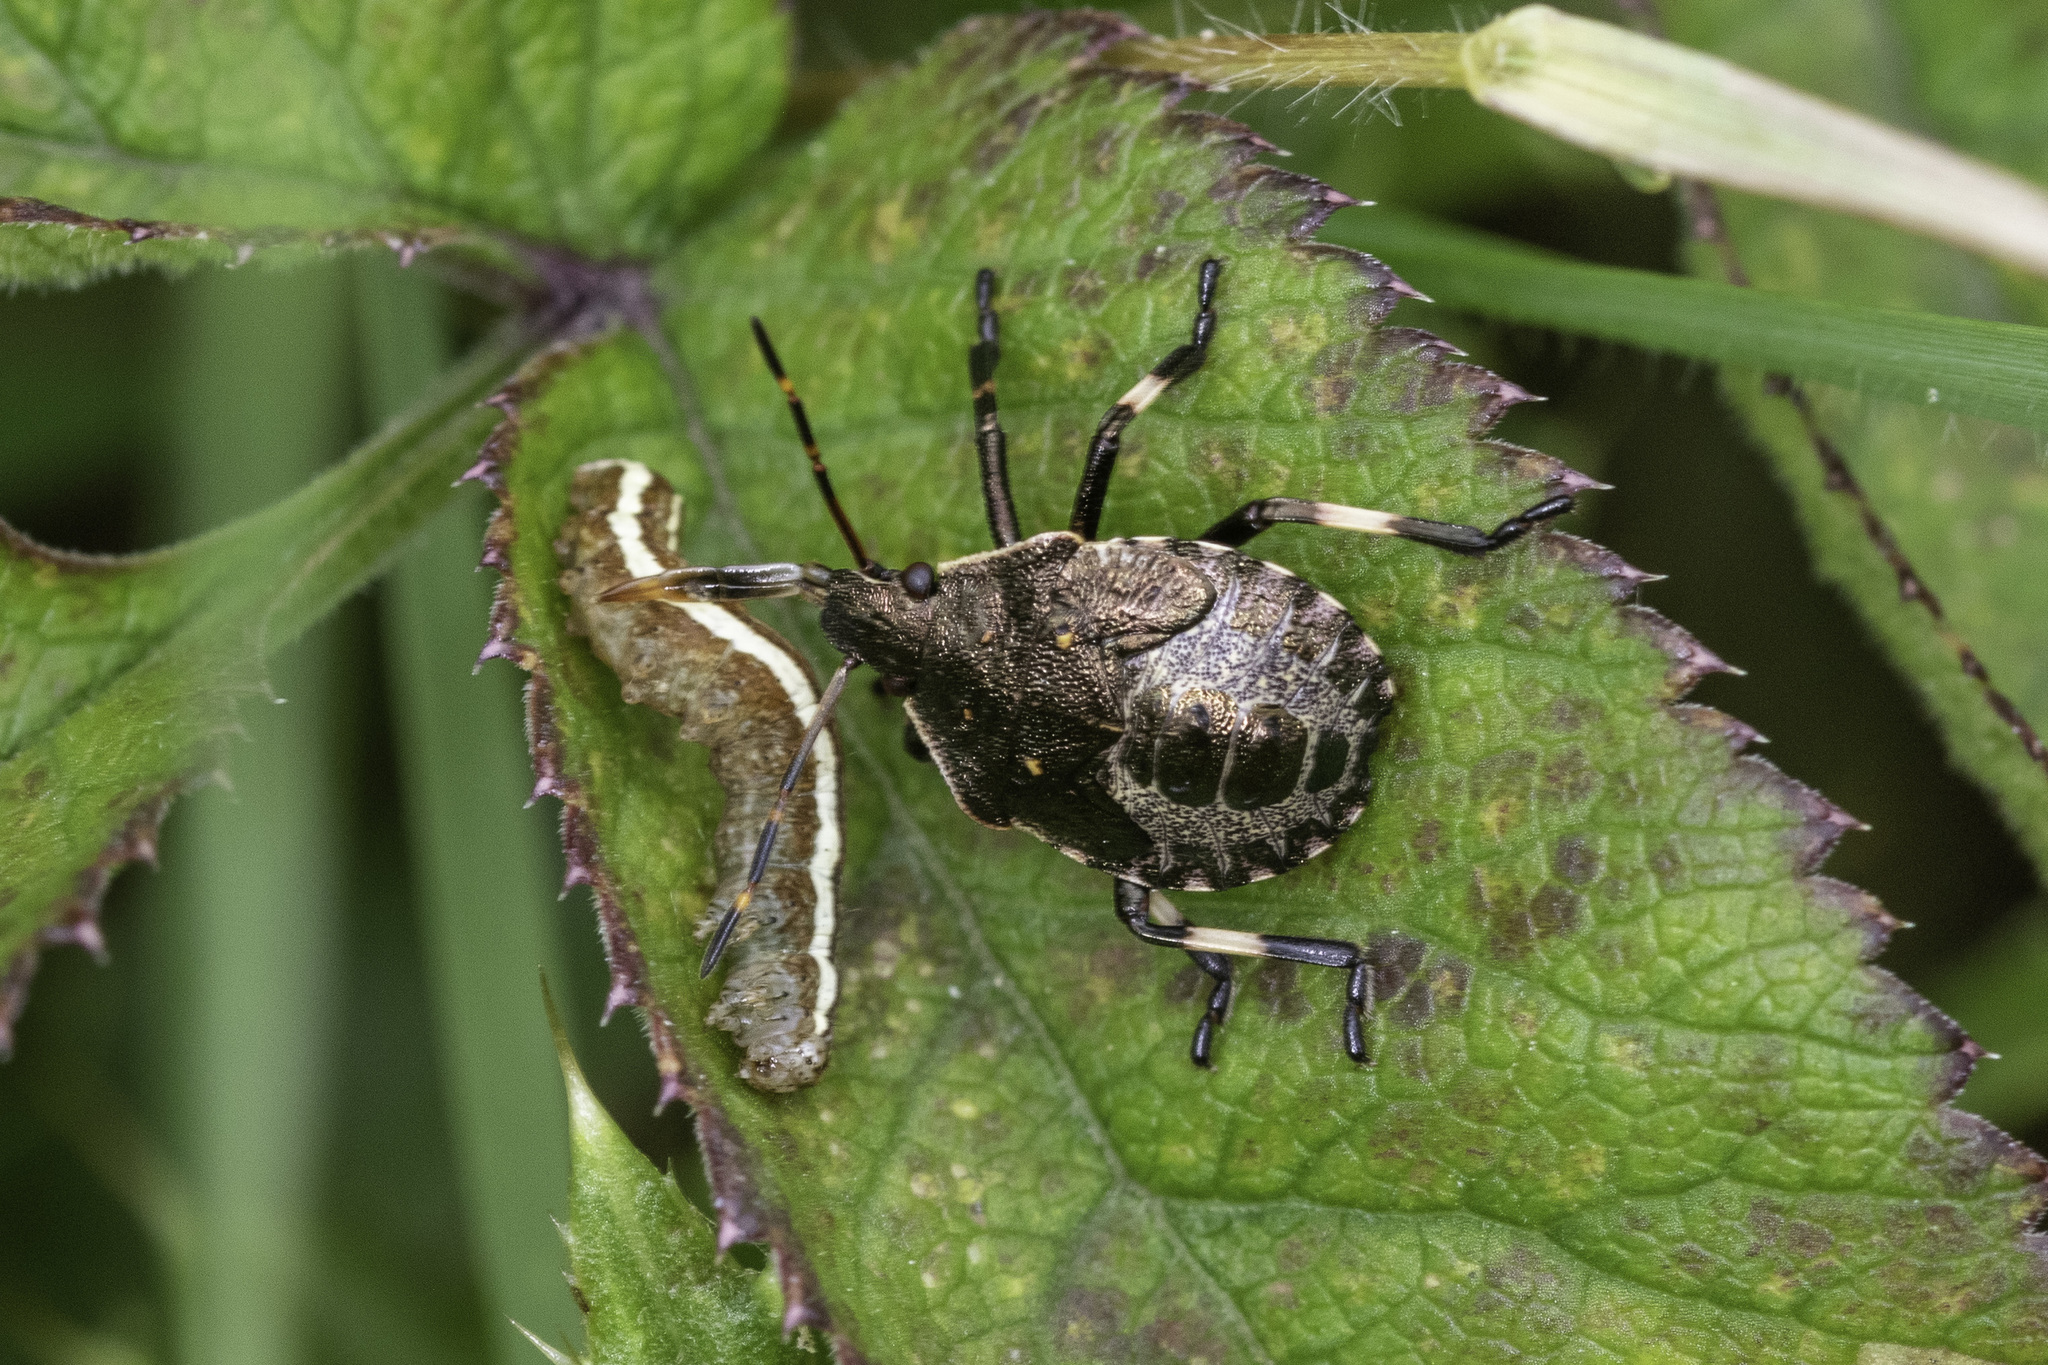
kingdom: Animalia
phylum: Arthropoda
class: Insecta
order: Hemiptera
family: Pentatomidae
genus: Picromerus
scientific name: Picromerus bidens
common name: Spiked shieldbug
